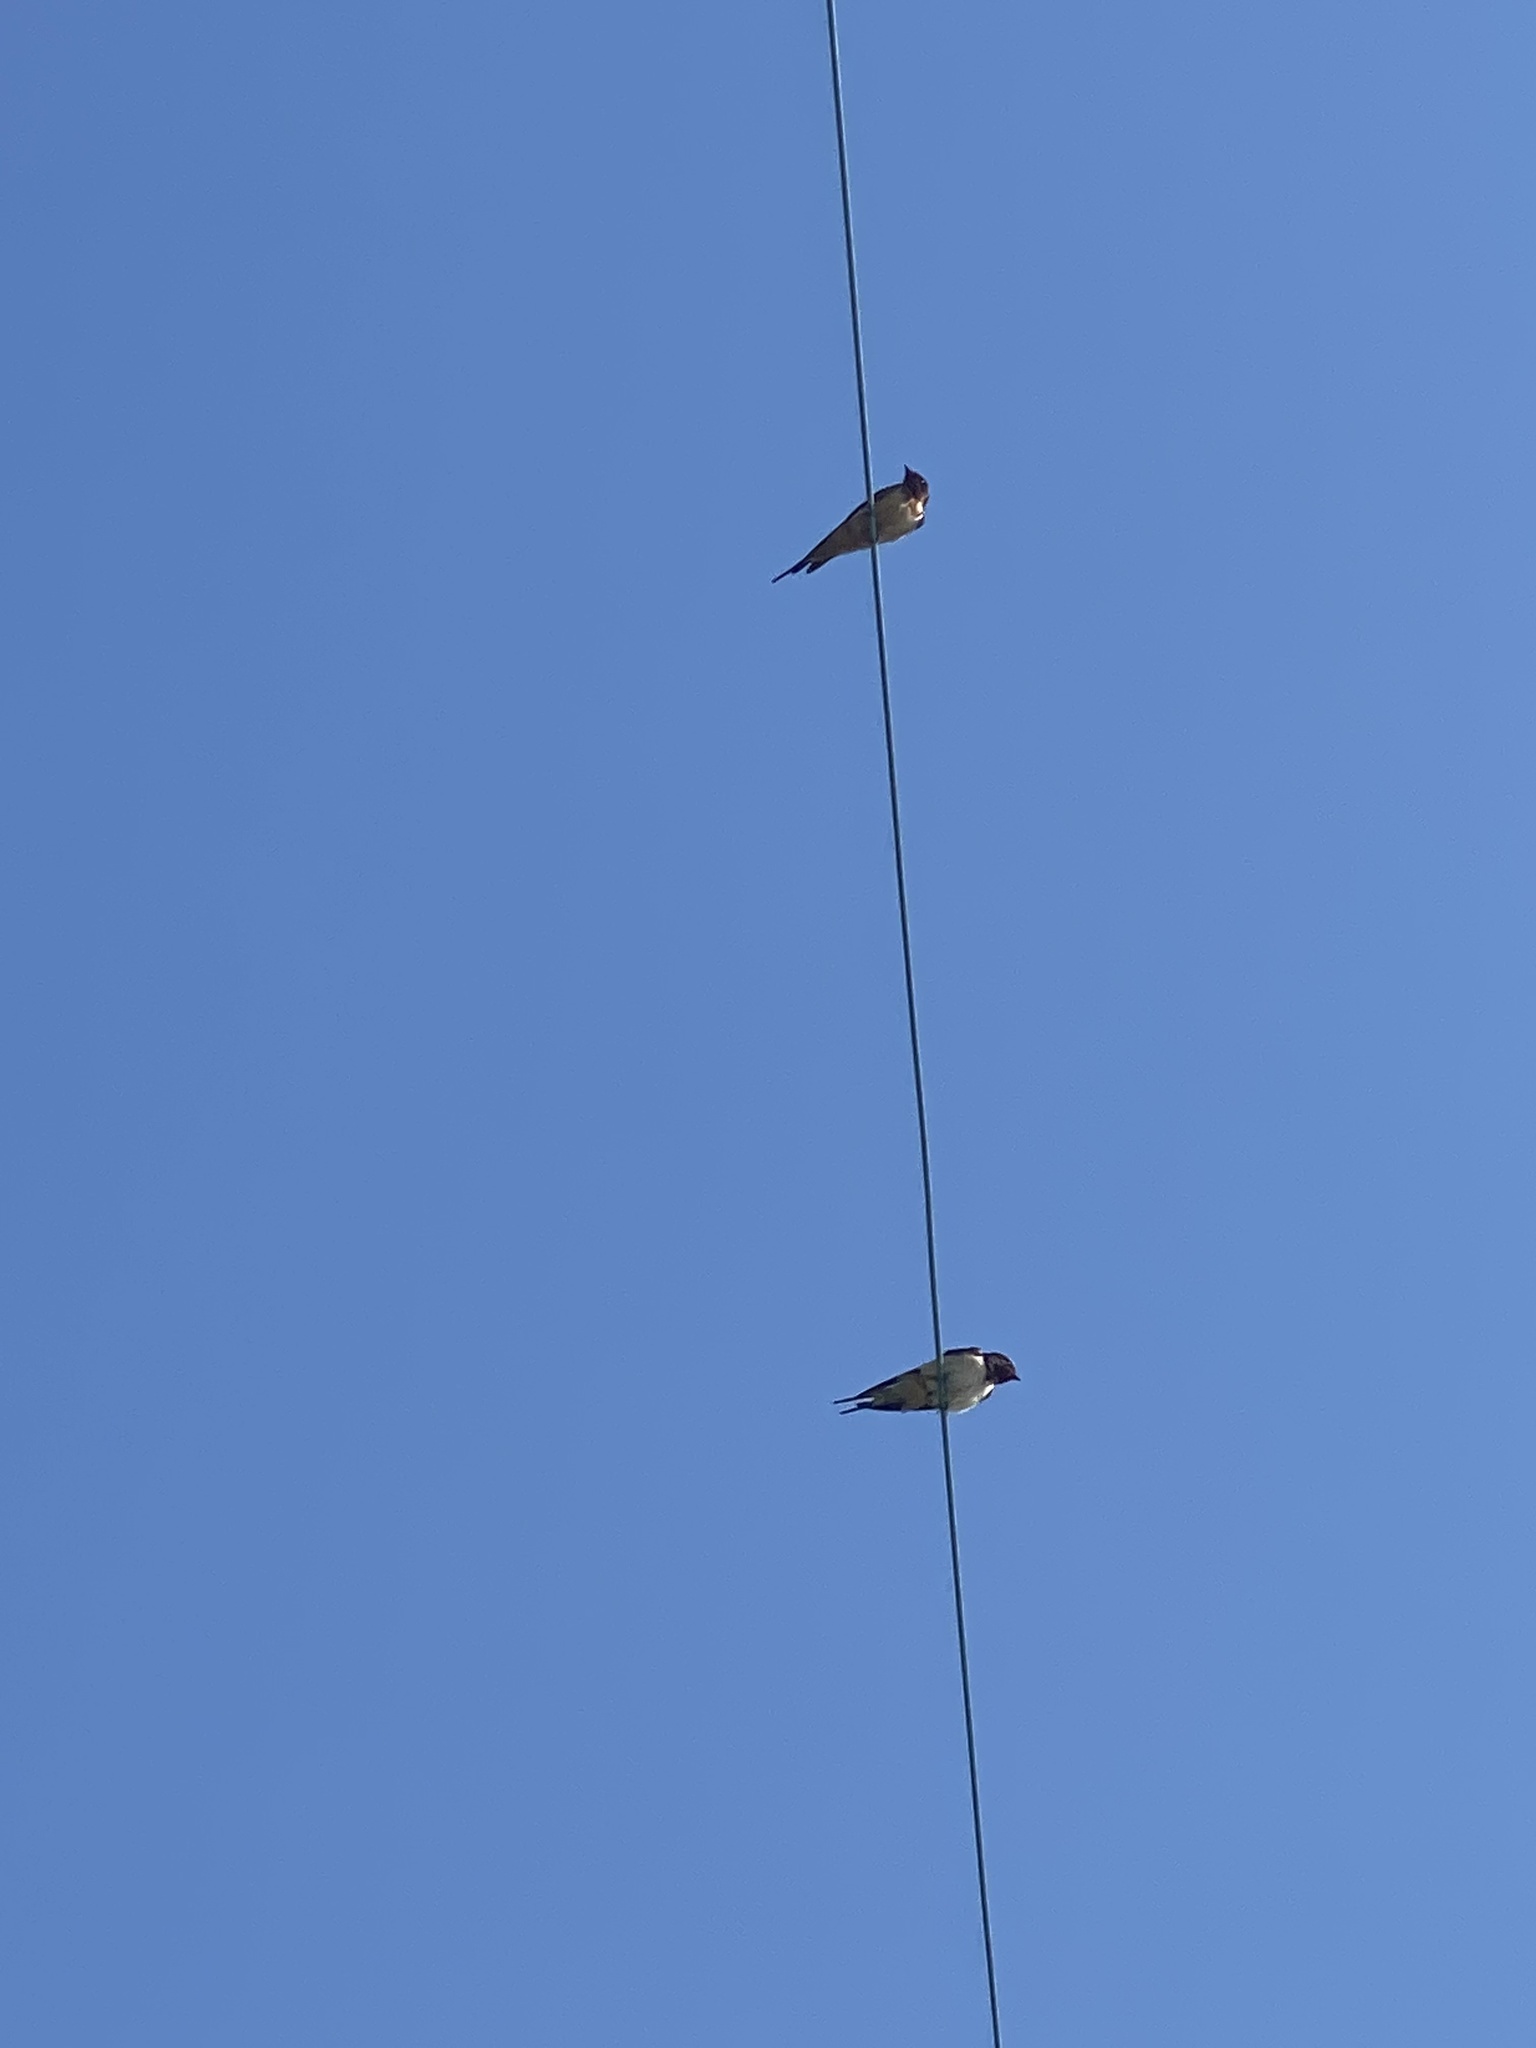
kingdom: Animalia
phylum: Chordata
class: Aves
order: Passeriformes
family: Hirundinidae
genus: Hirundo
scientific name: Hirundo rustica
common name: Barn swallow
